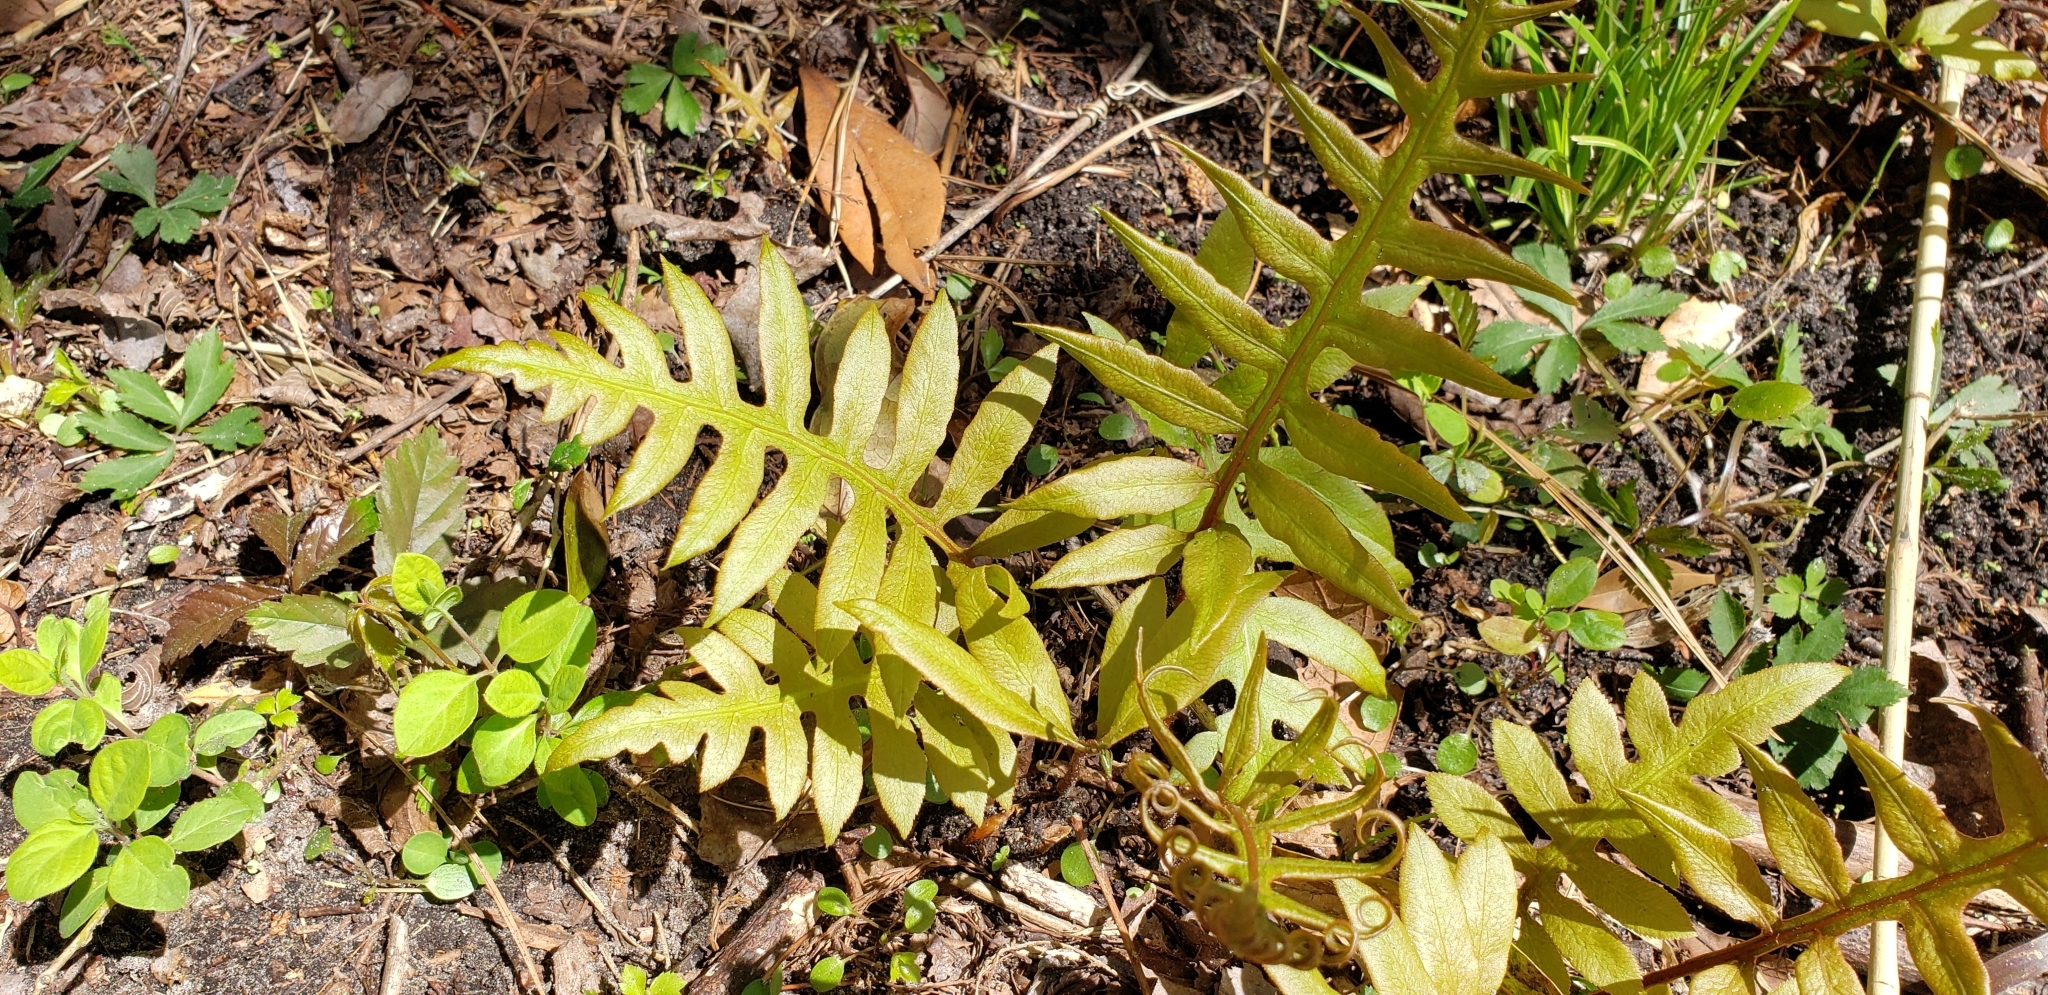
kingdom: Plantae
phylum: Tracheophyta
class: Polypodiopsida
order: Polypodiales
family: Blechnaceae
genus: Lorinseria
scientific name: Lorinseria areolata
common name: Dwarf chain fern
